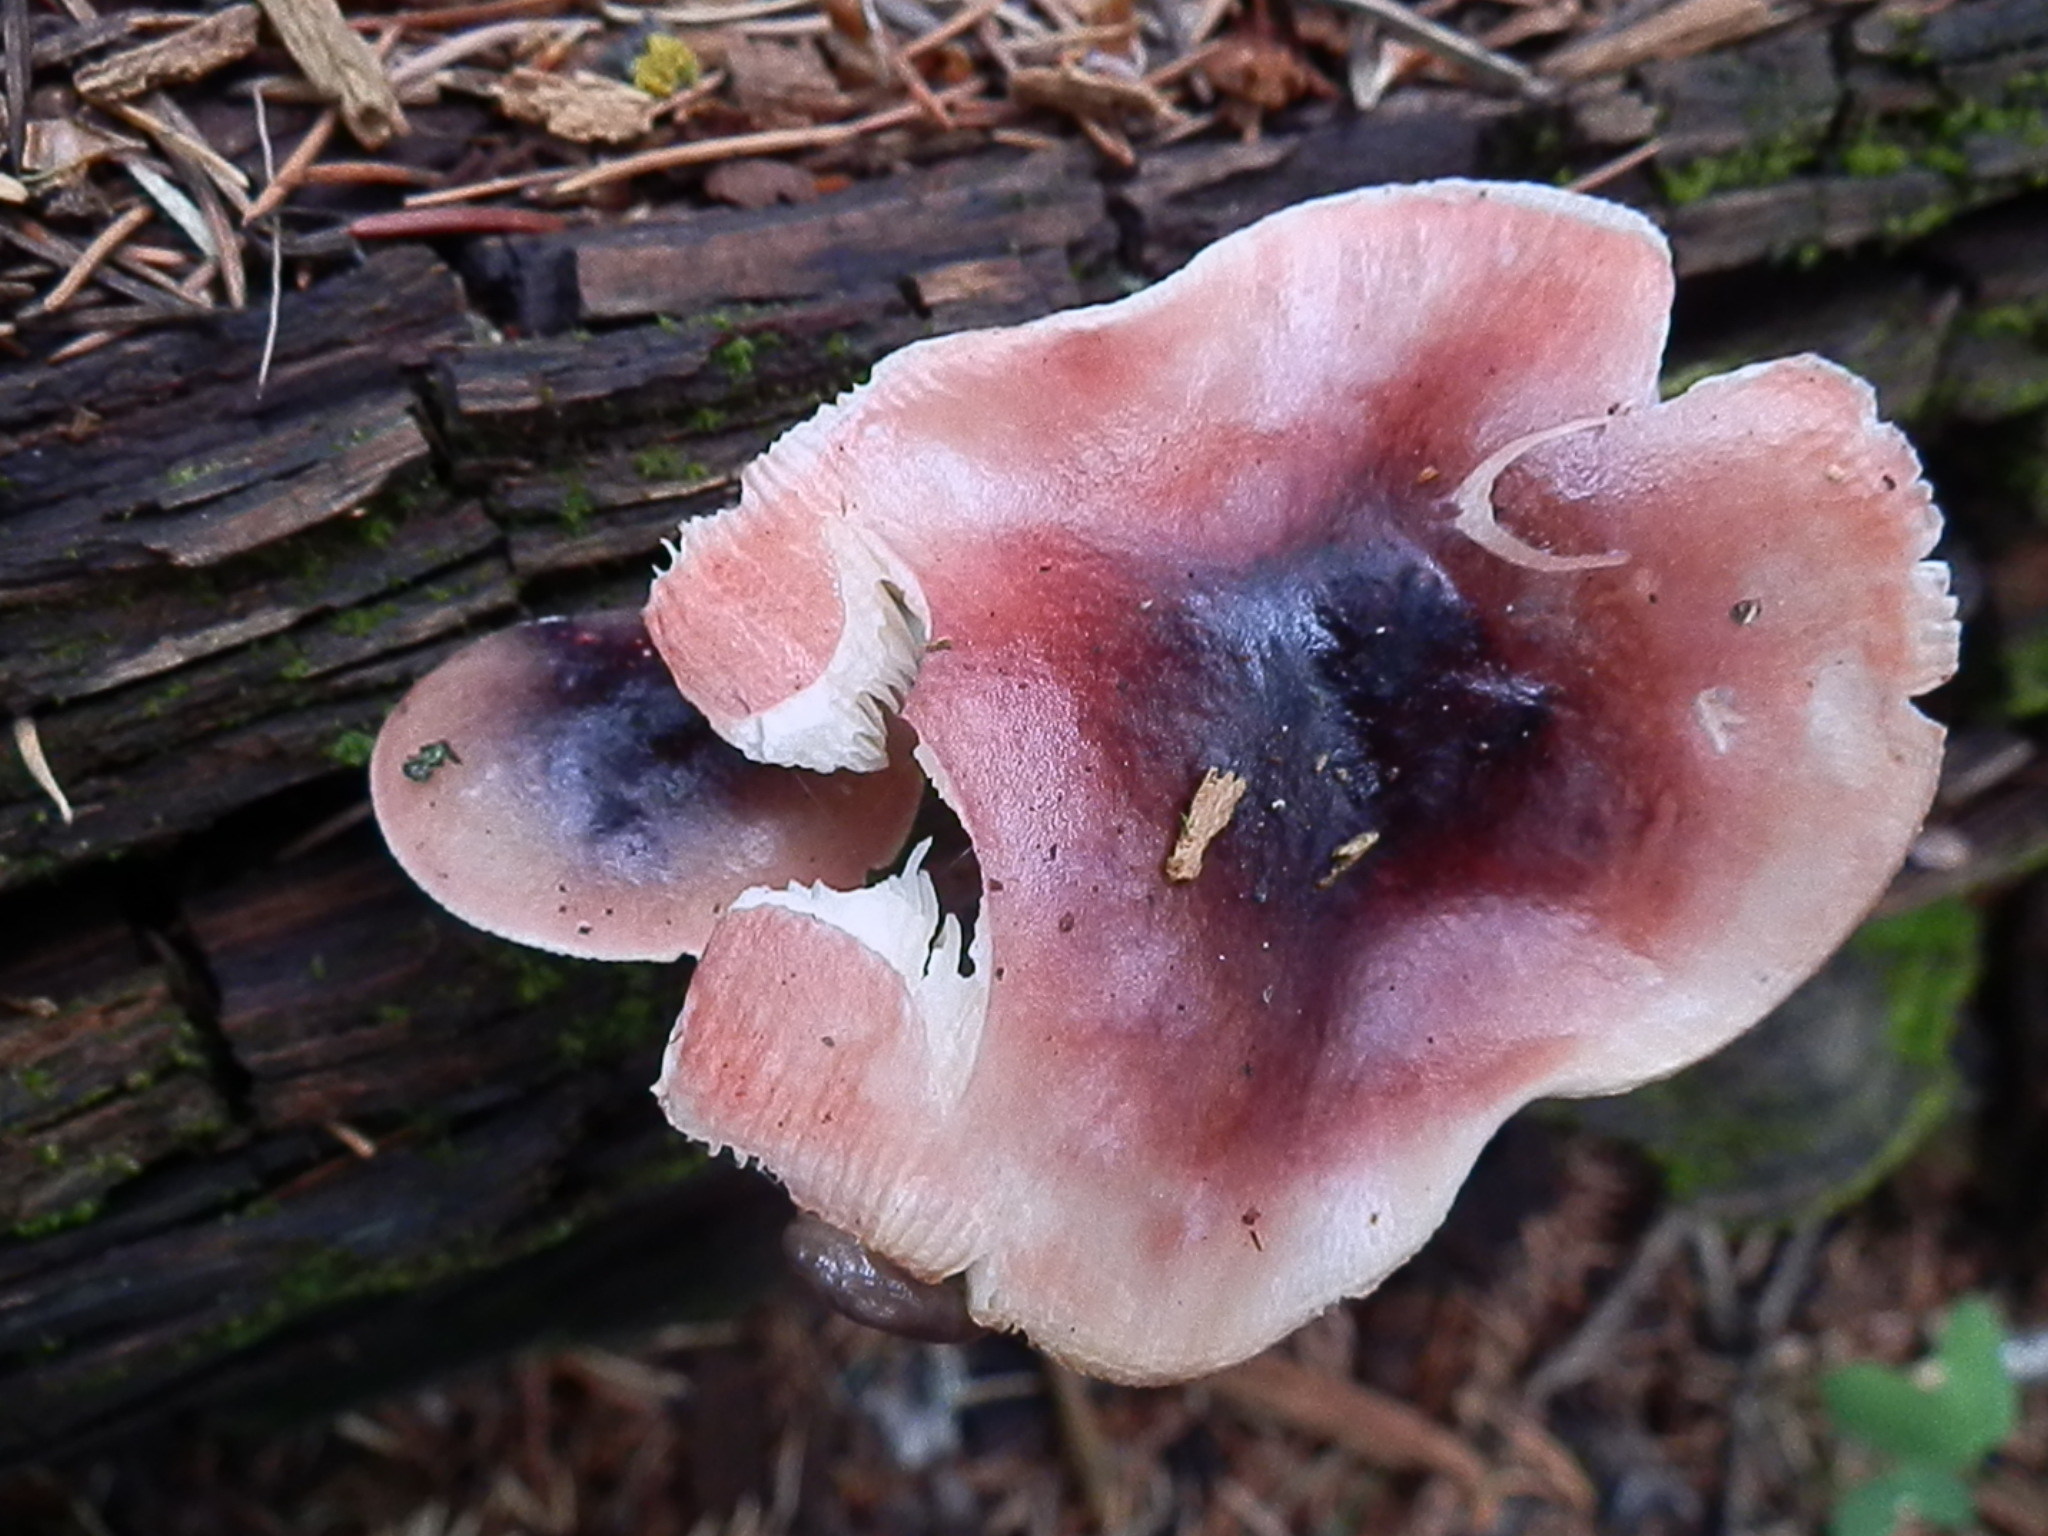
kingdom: Fungi
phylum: Basidiomycota
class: Agaricomycetes
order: Russulales
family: Russulaceae
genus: Russula
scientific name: Russula atropurpurea
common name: Blackish-purple russula
